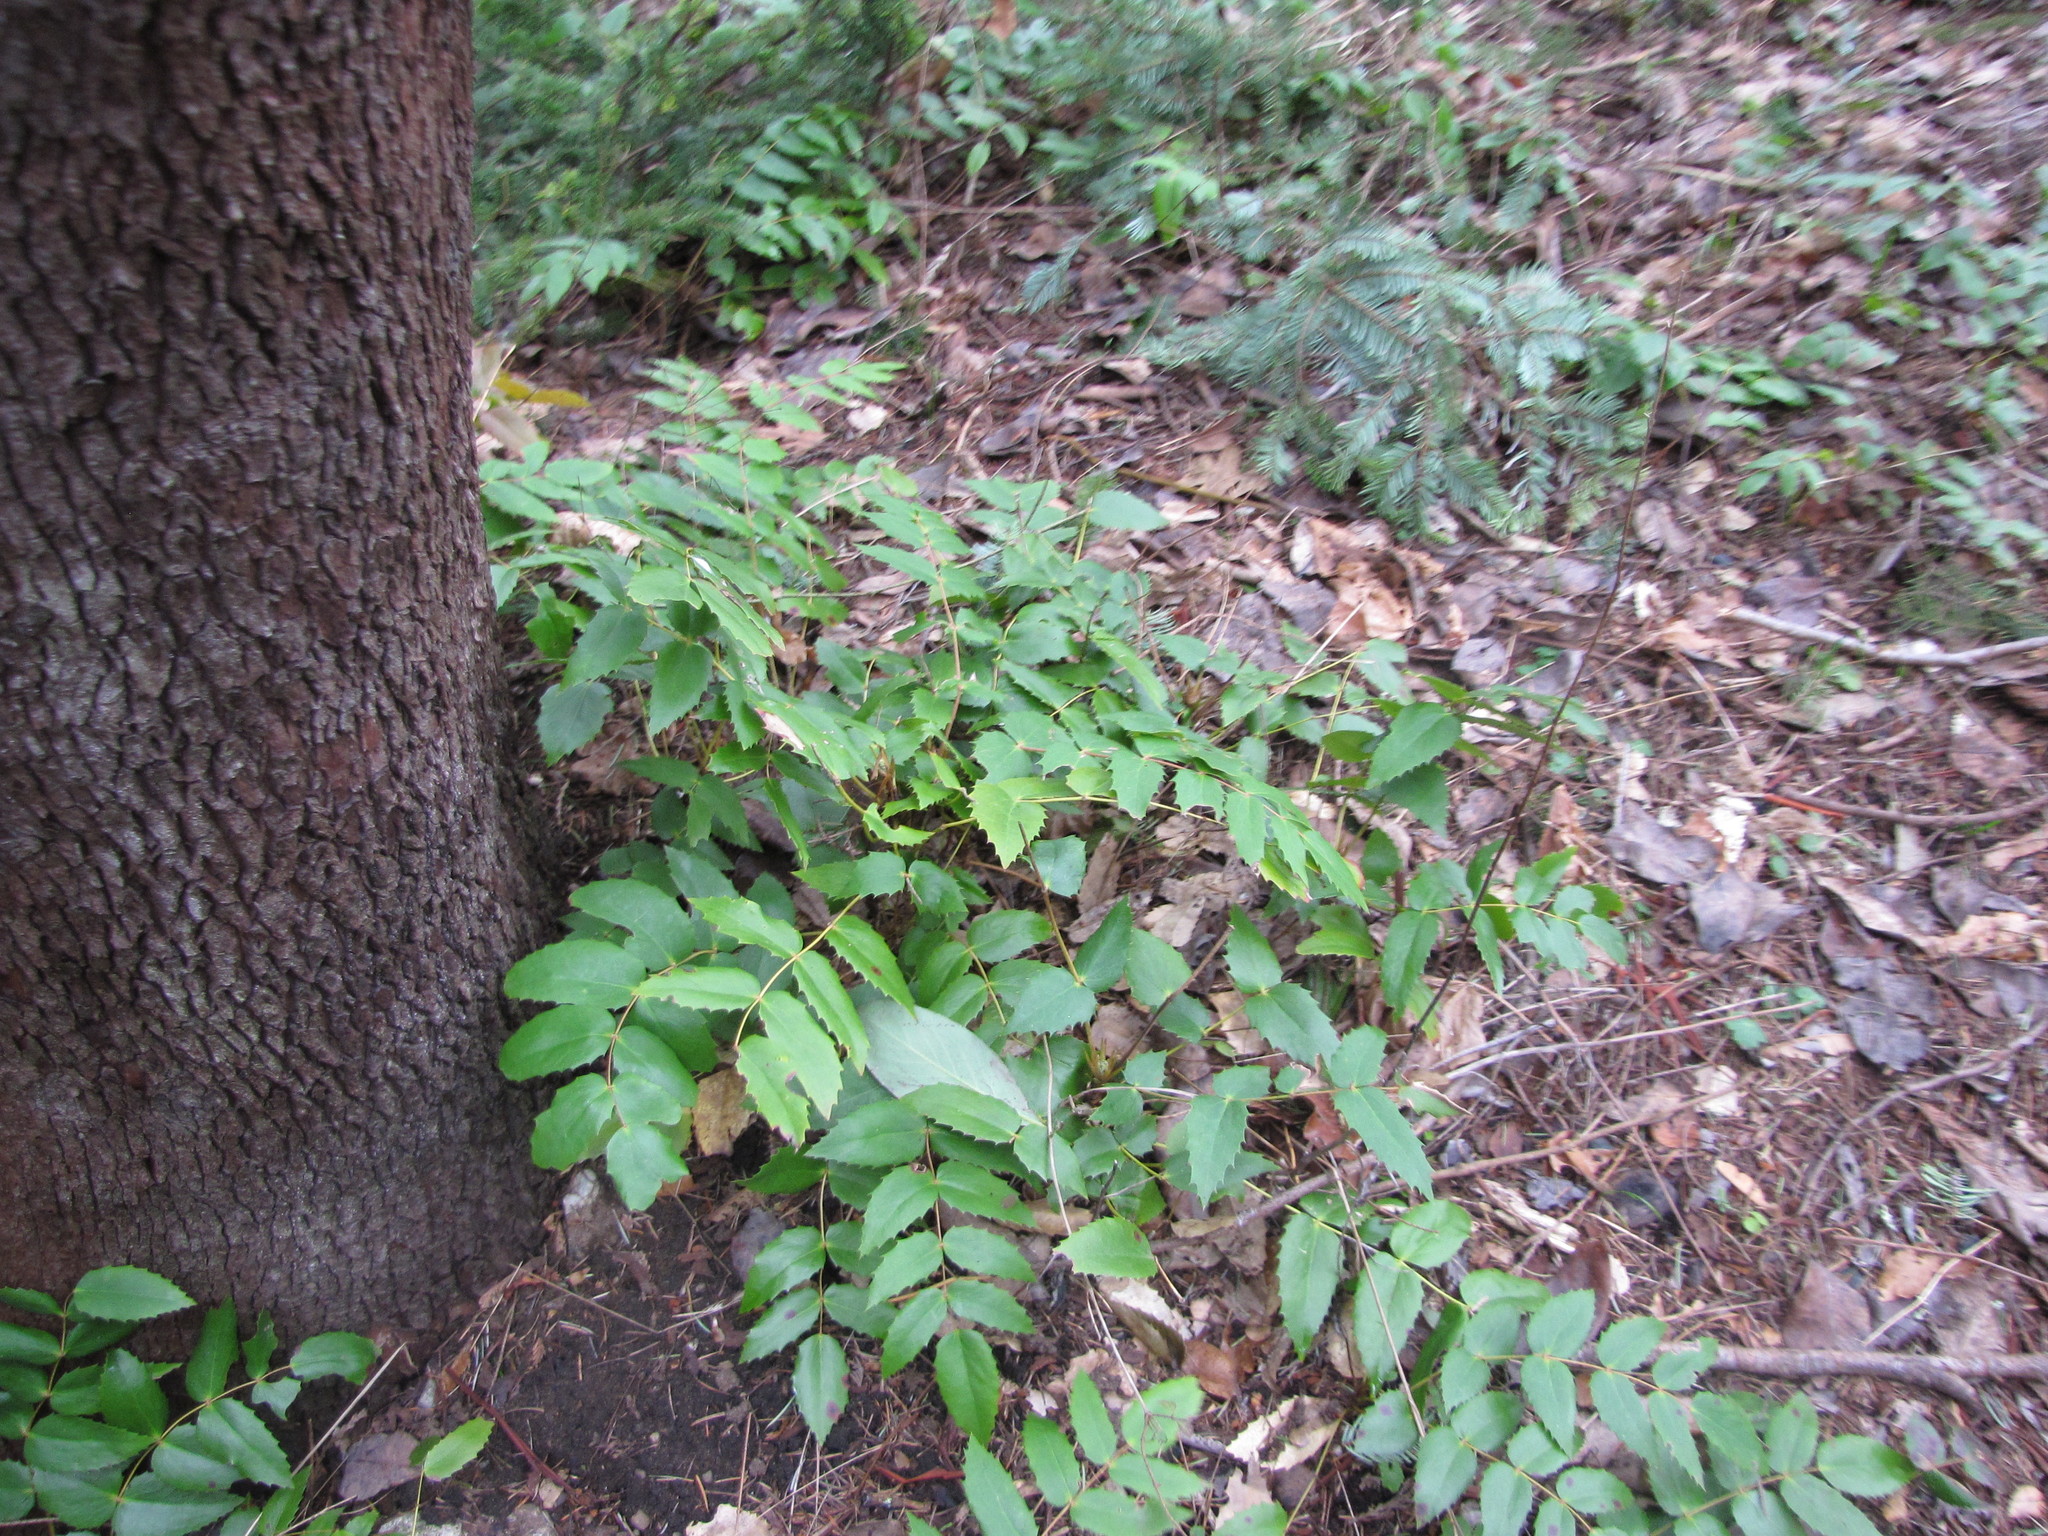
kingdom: Plantae
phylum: Tracheophyta
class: Magnoliopsida
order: Ranunculales
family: Berberidaceae
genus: Mahonia
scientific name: Mahonia nervosa
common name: Cascade oregon-grape
